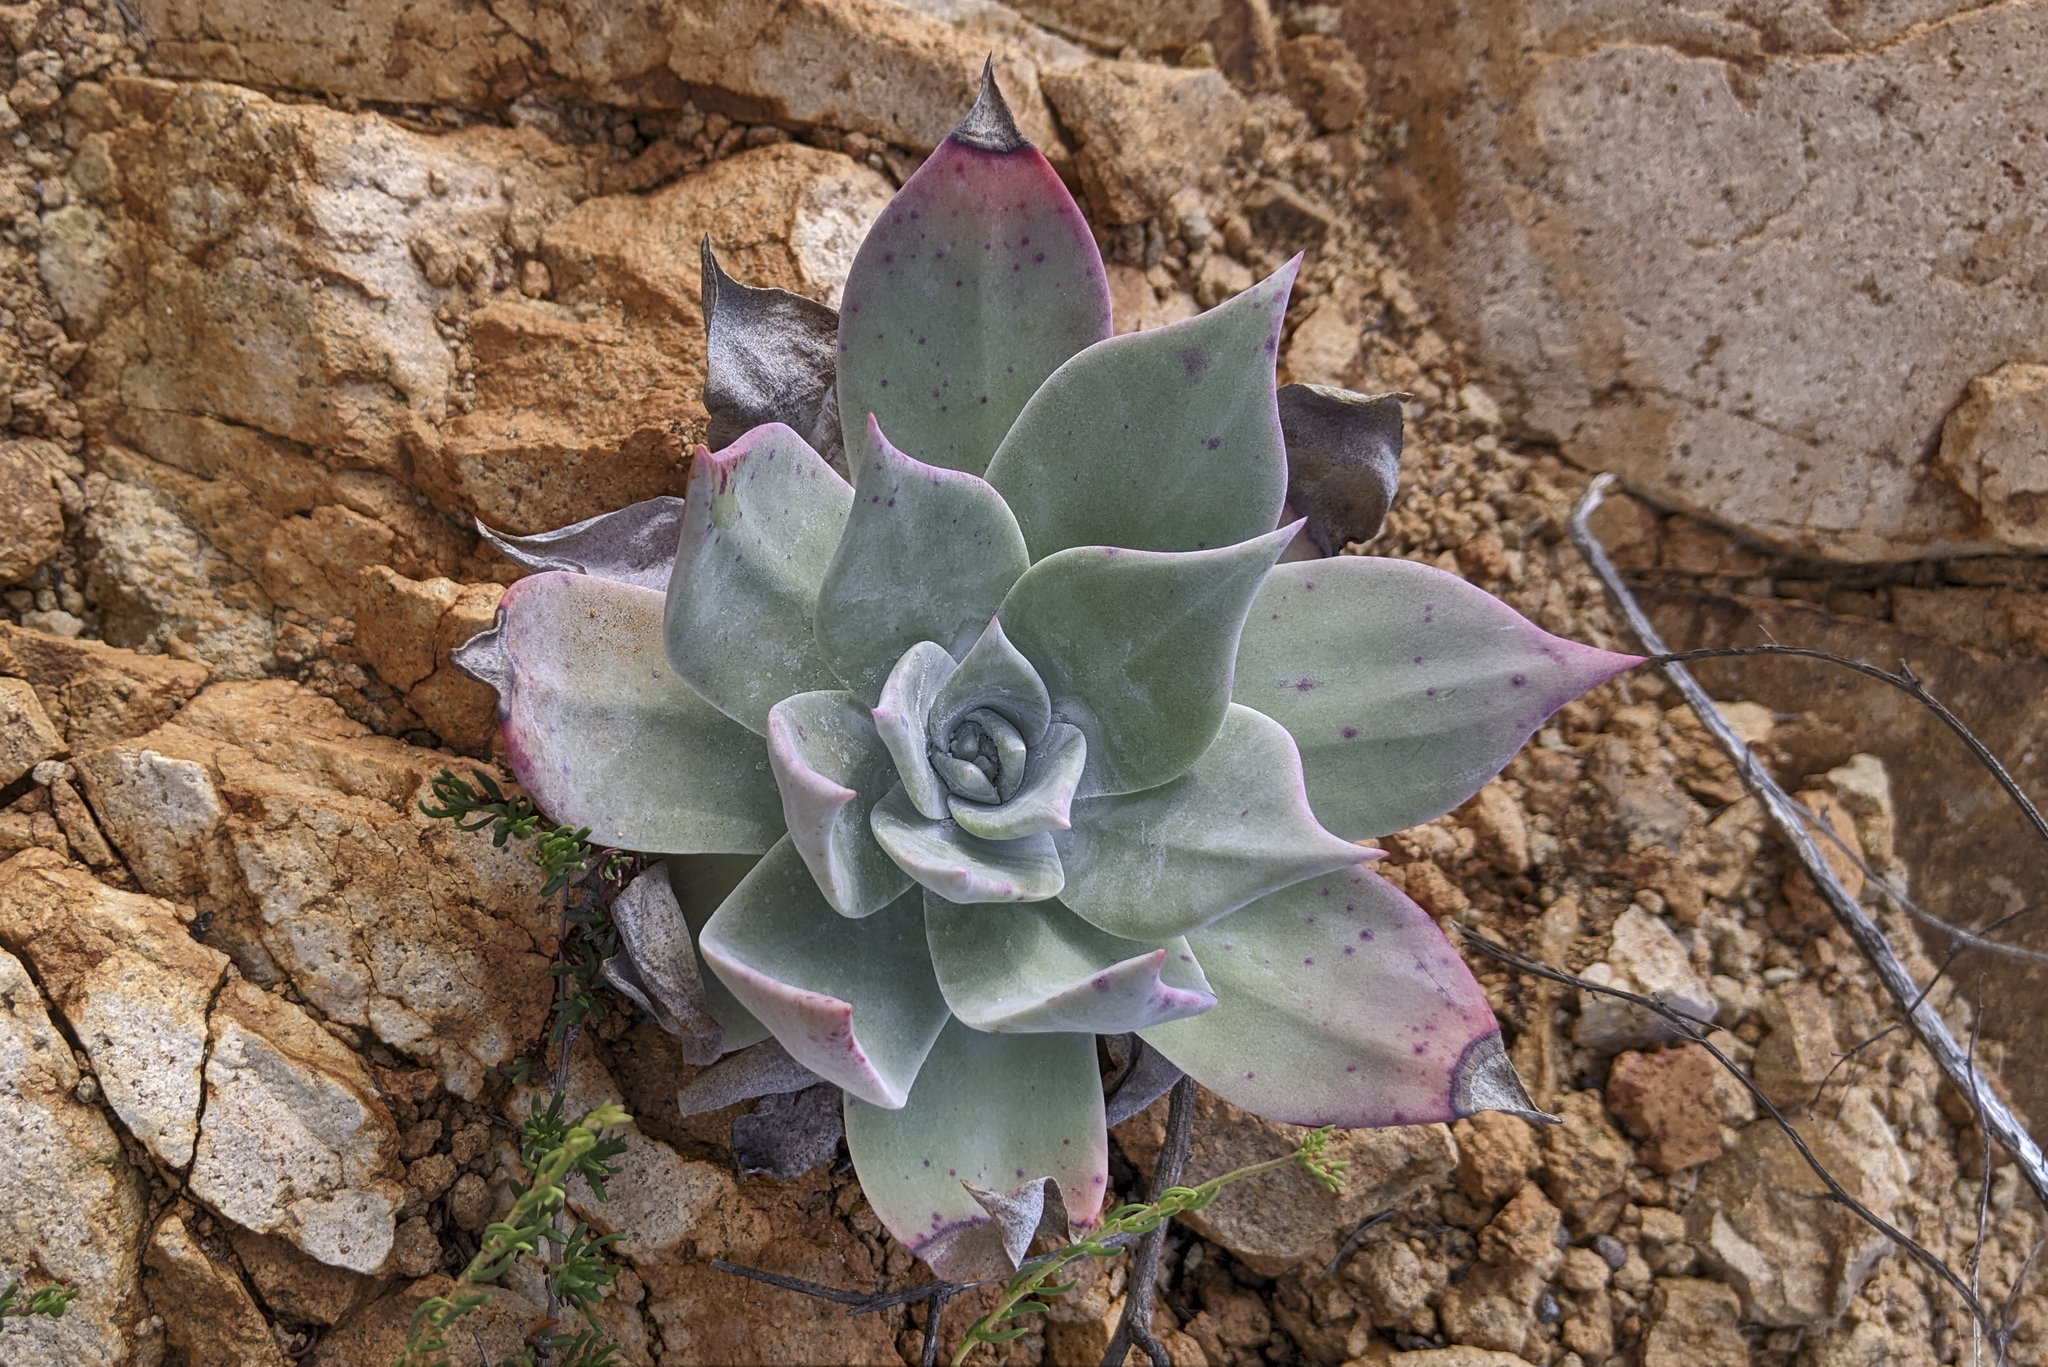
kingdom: Plantae
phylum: Tracheophyta
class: Magnoliopsida
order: Saxifragales
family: Crassulaceae
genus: Dudleya
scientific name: Dudleya pulverulenta
